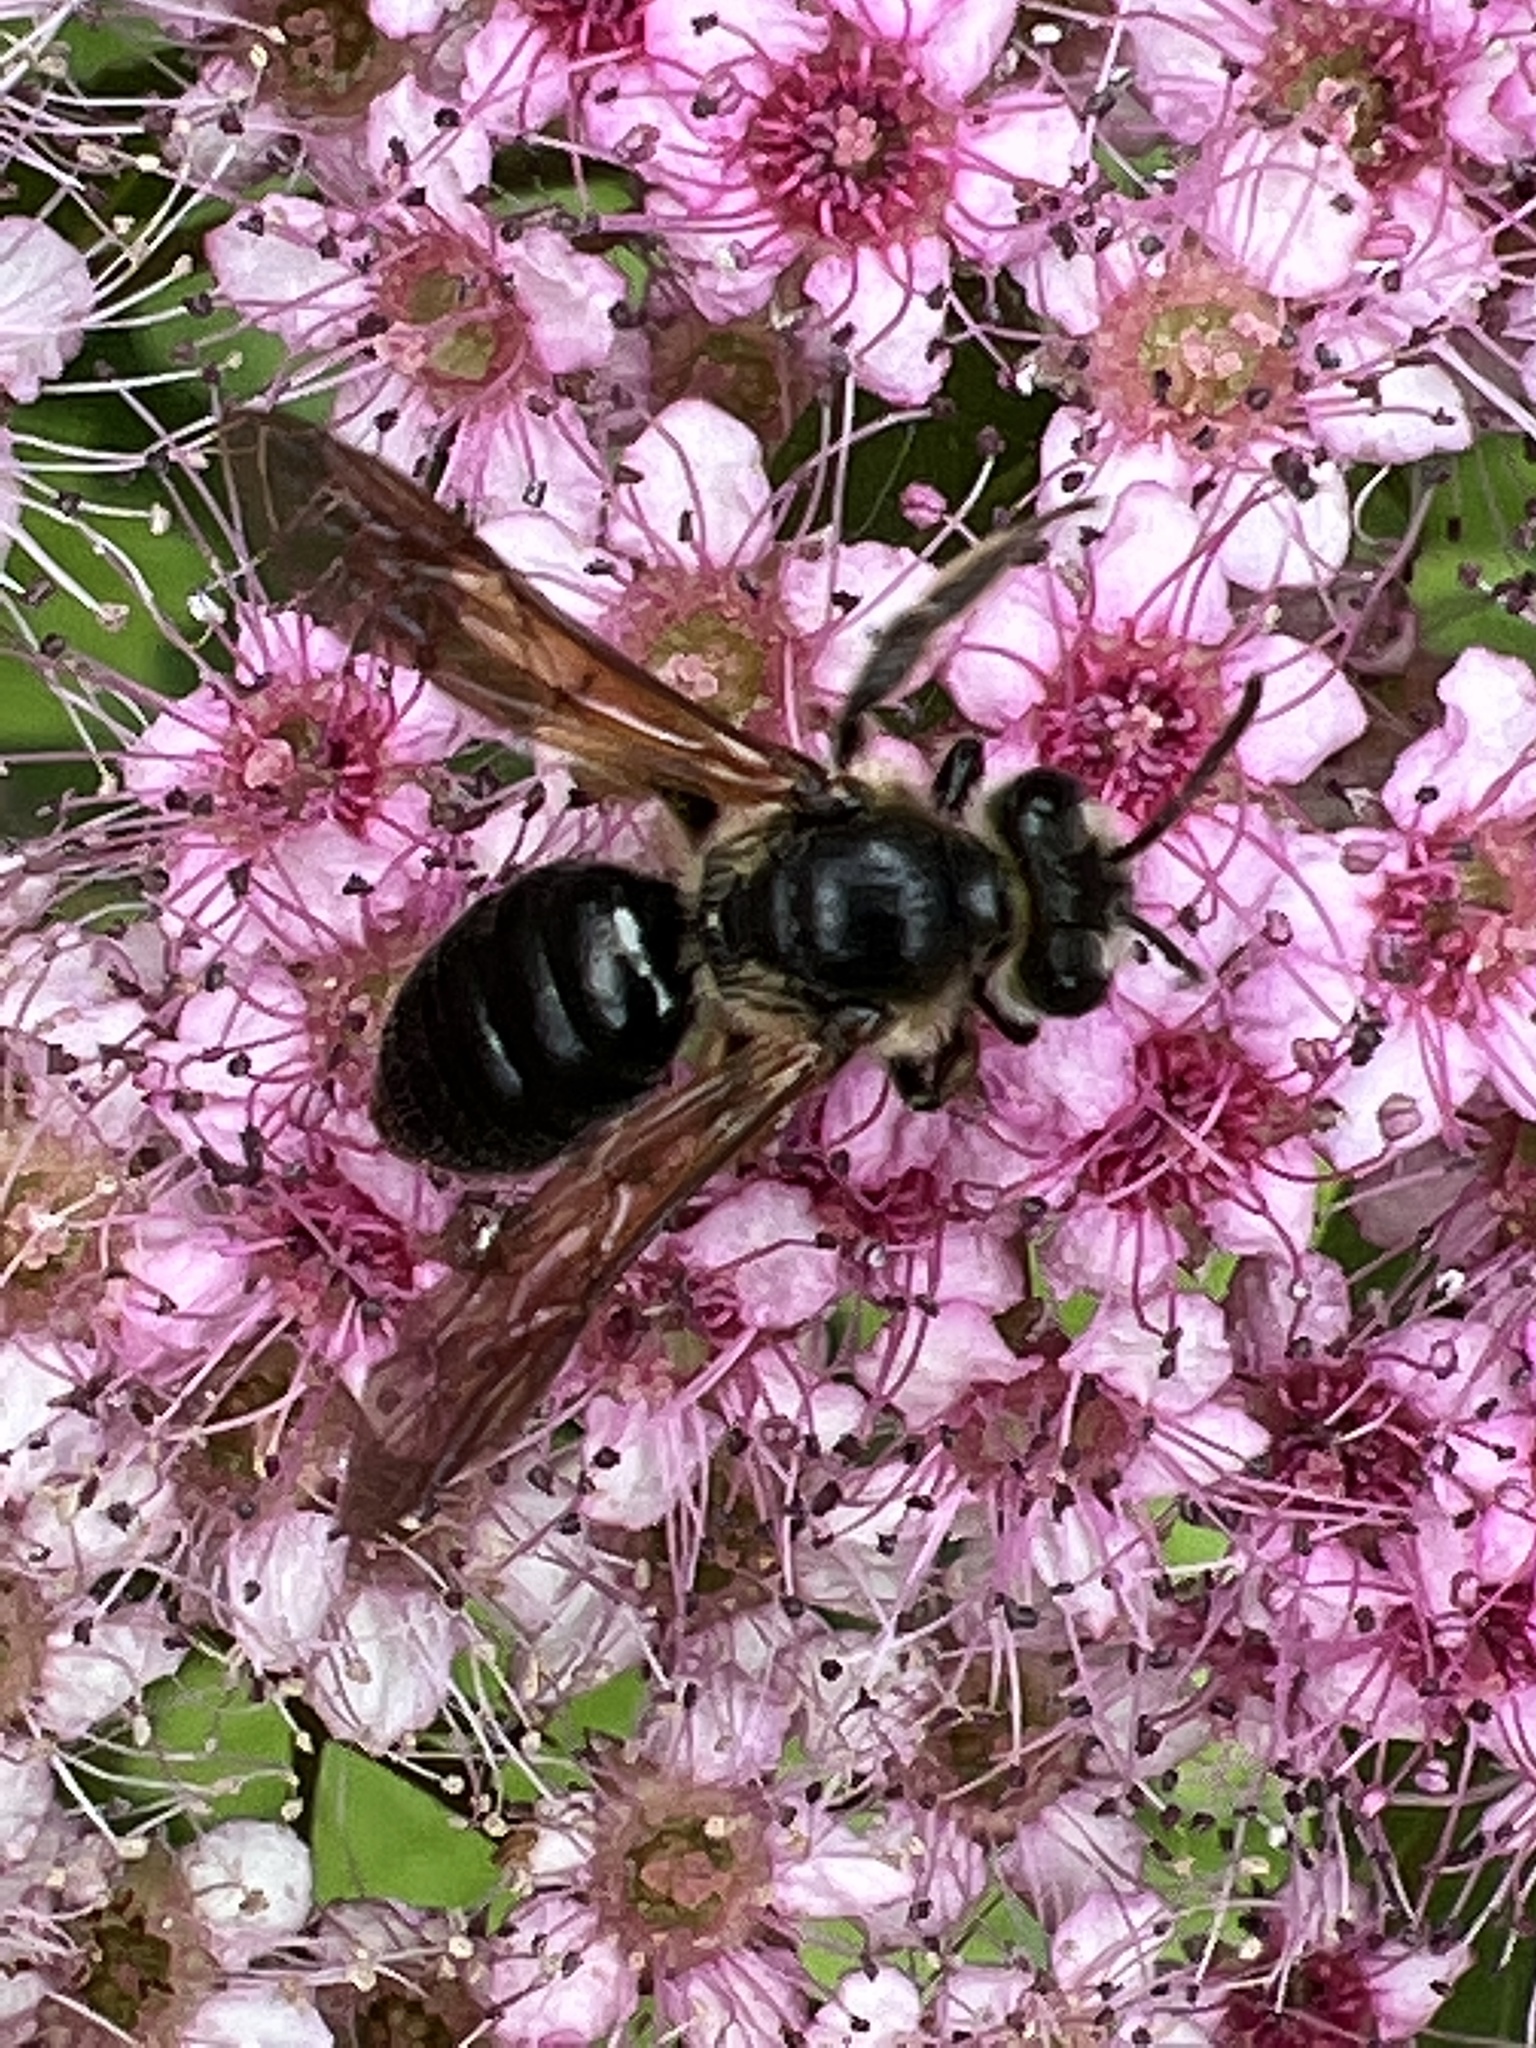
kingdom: Animalia
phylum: Arthropoda
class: Insecta
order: Hymenoptera
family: Andrenidae
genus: Andrena
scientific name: Andrena crataegi
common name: Hawthorn mining bee
